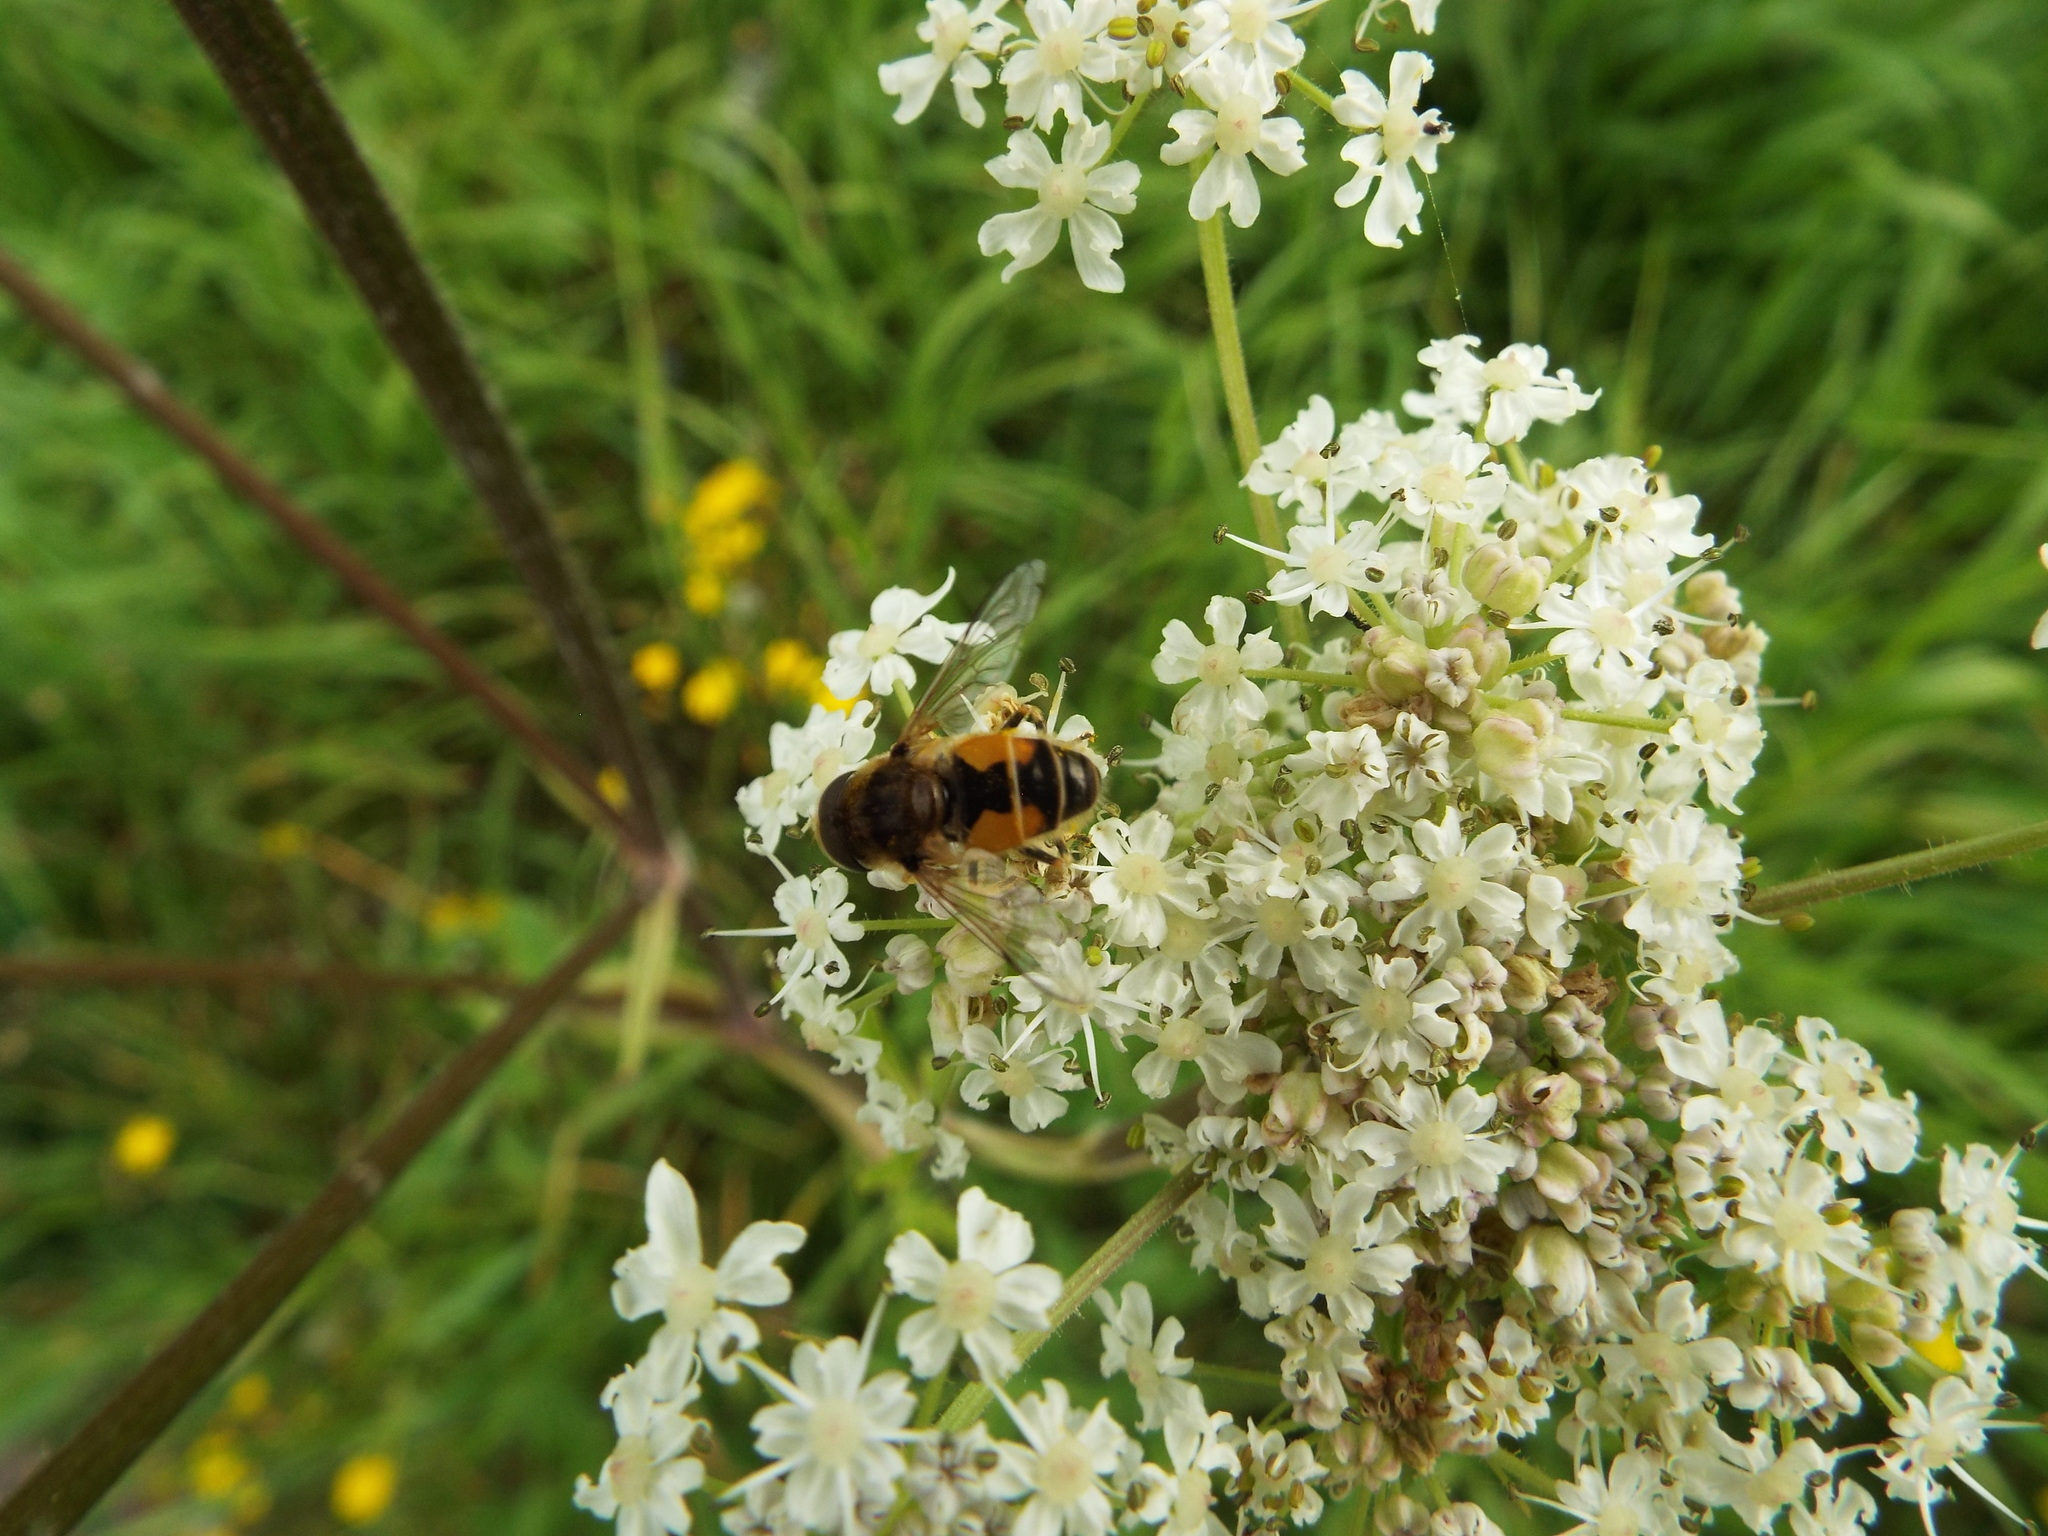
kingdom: Animalia
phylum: Arthropoda
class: Insecta
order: Diptera
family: Syrphidae
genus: Eristalis
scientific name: Eristalis arbustorum
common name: Hover fly
